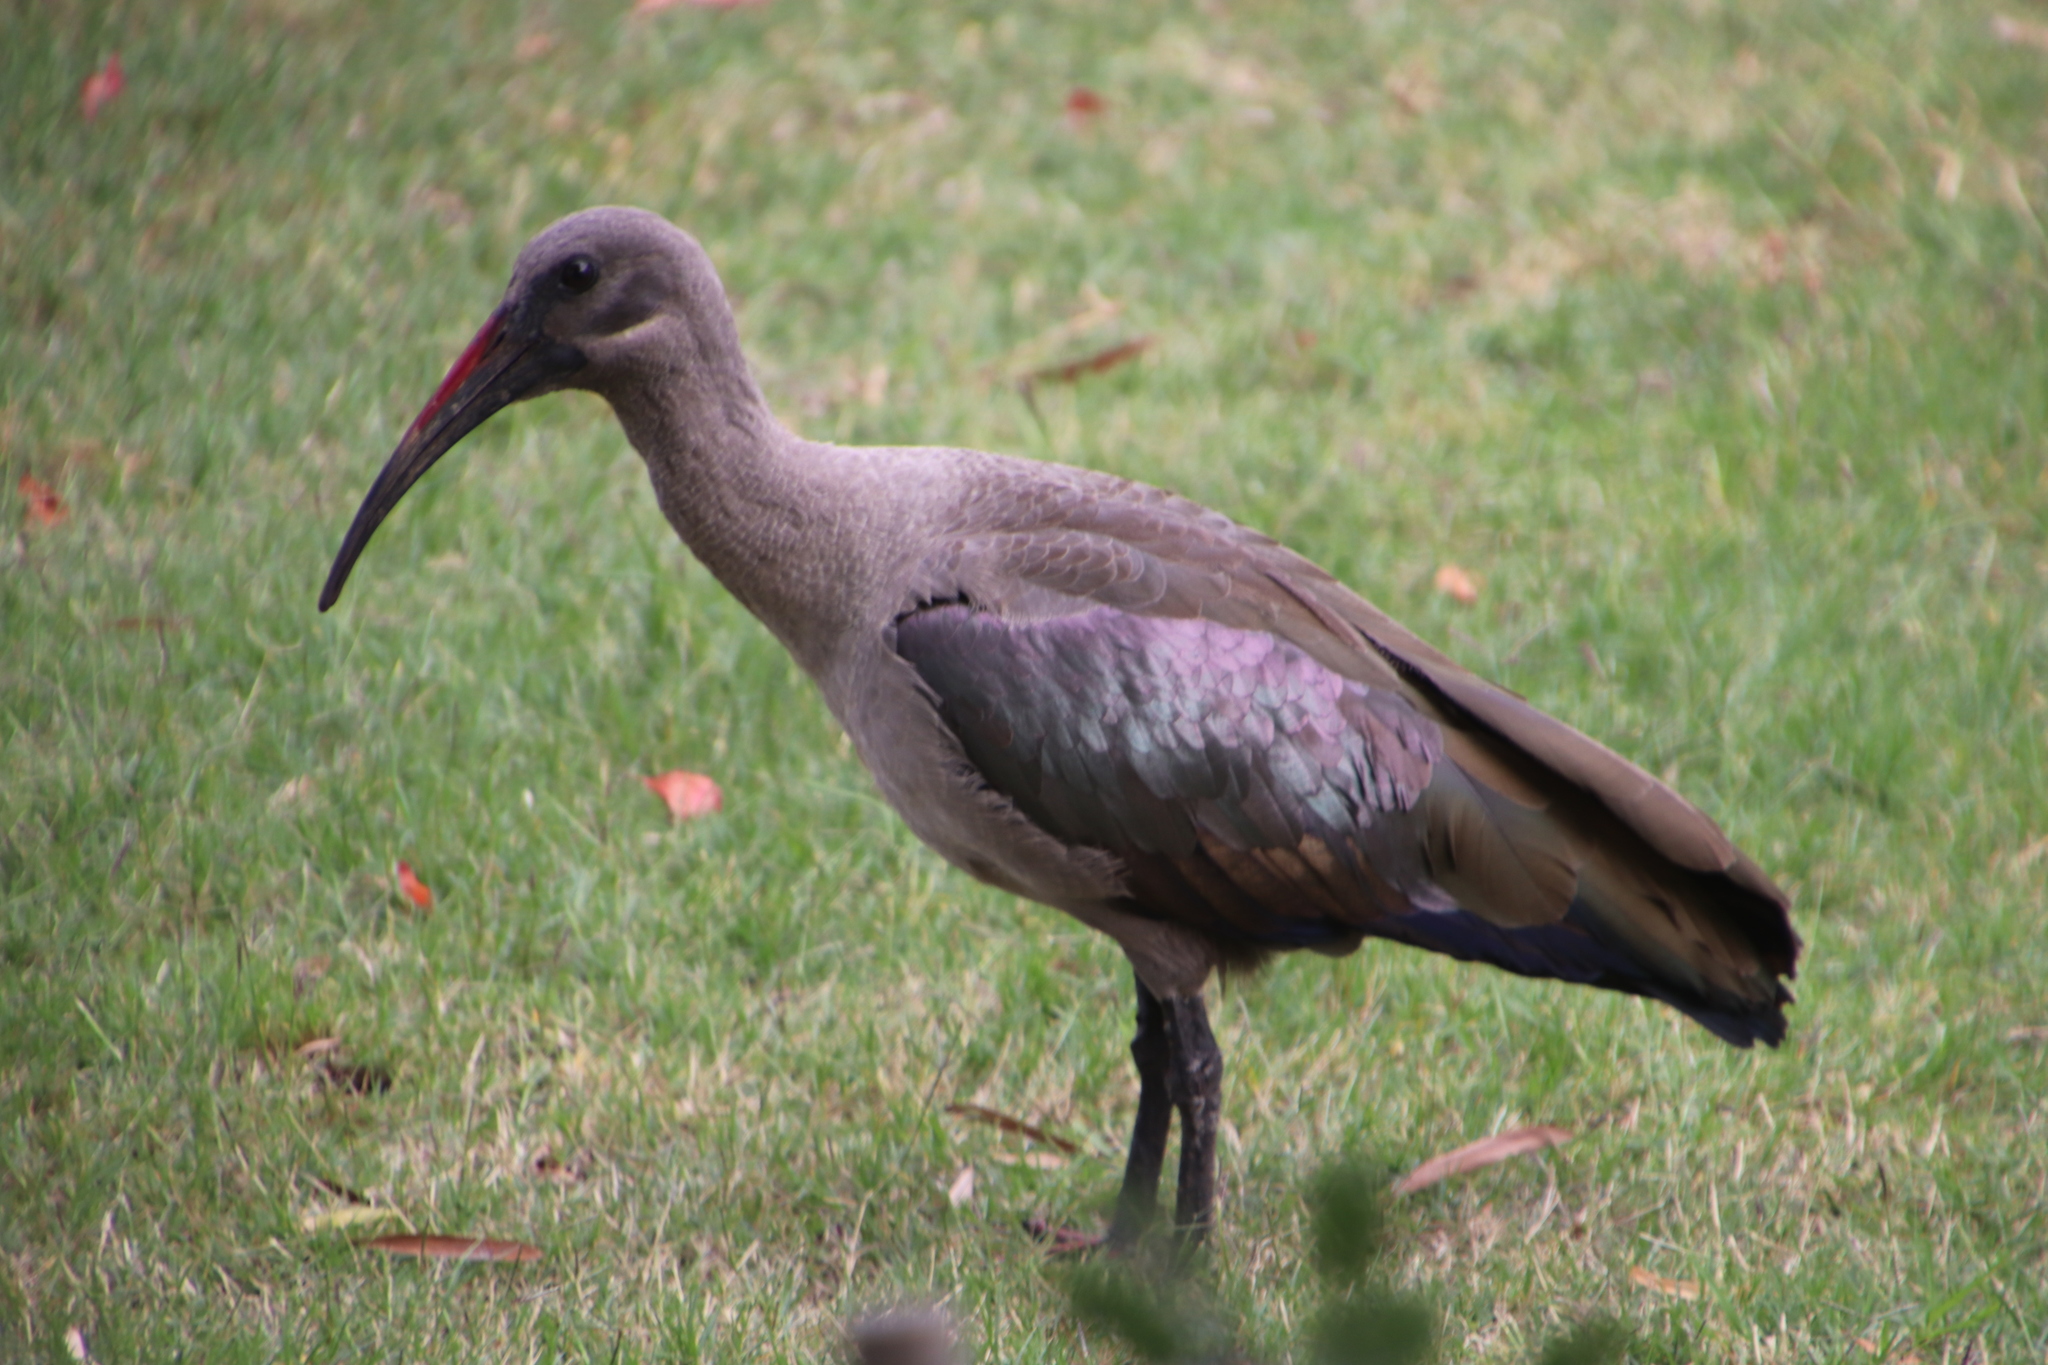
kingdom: Animalia
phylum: Chordata
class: Aves
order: Pelecaniformes
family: Threskiornithidae
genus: Bostrychia
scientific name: Bostrychia hagedash
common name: Hadada ibis
